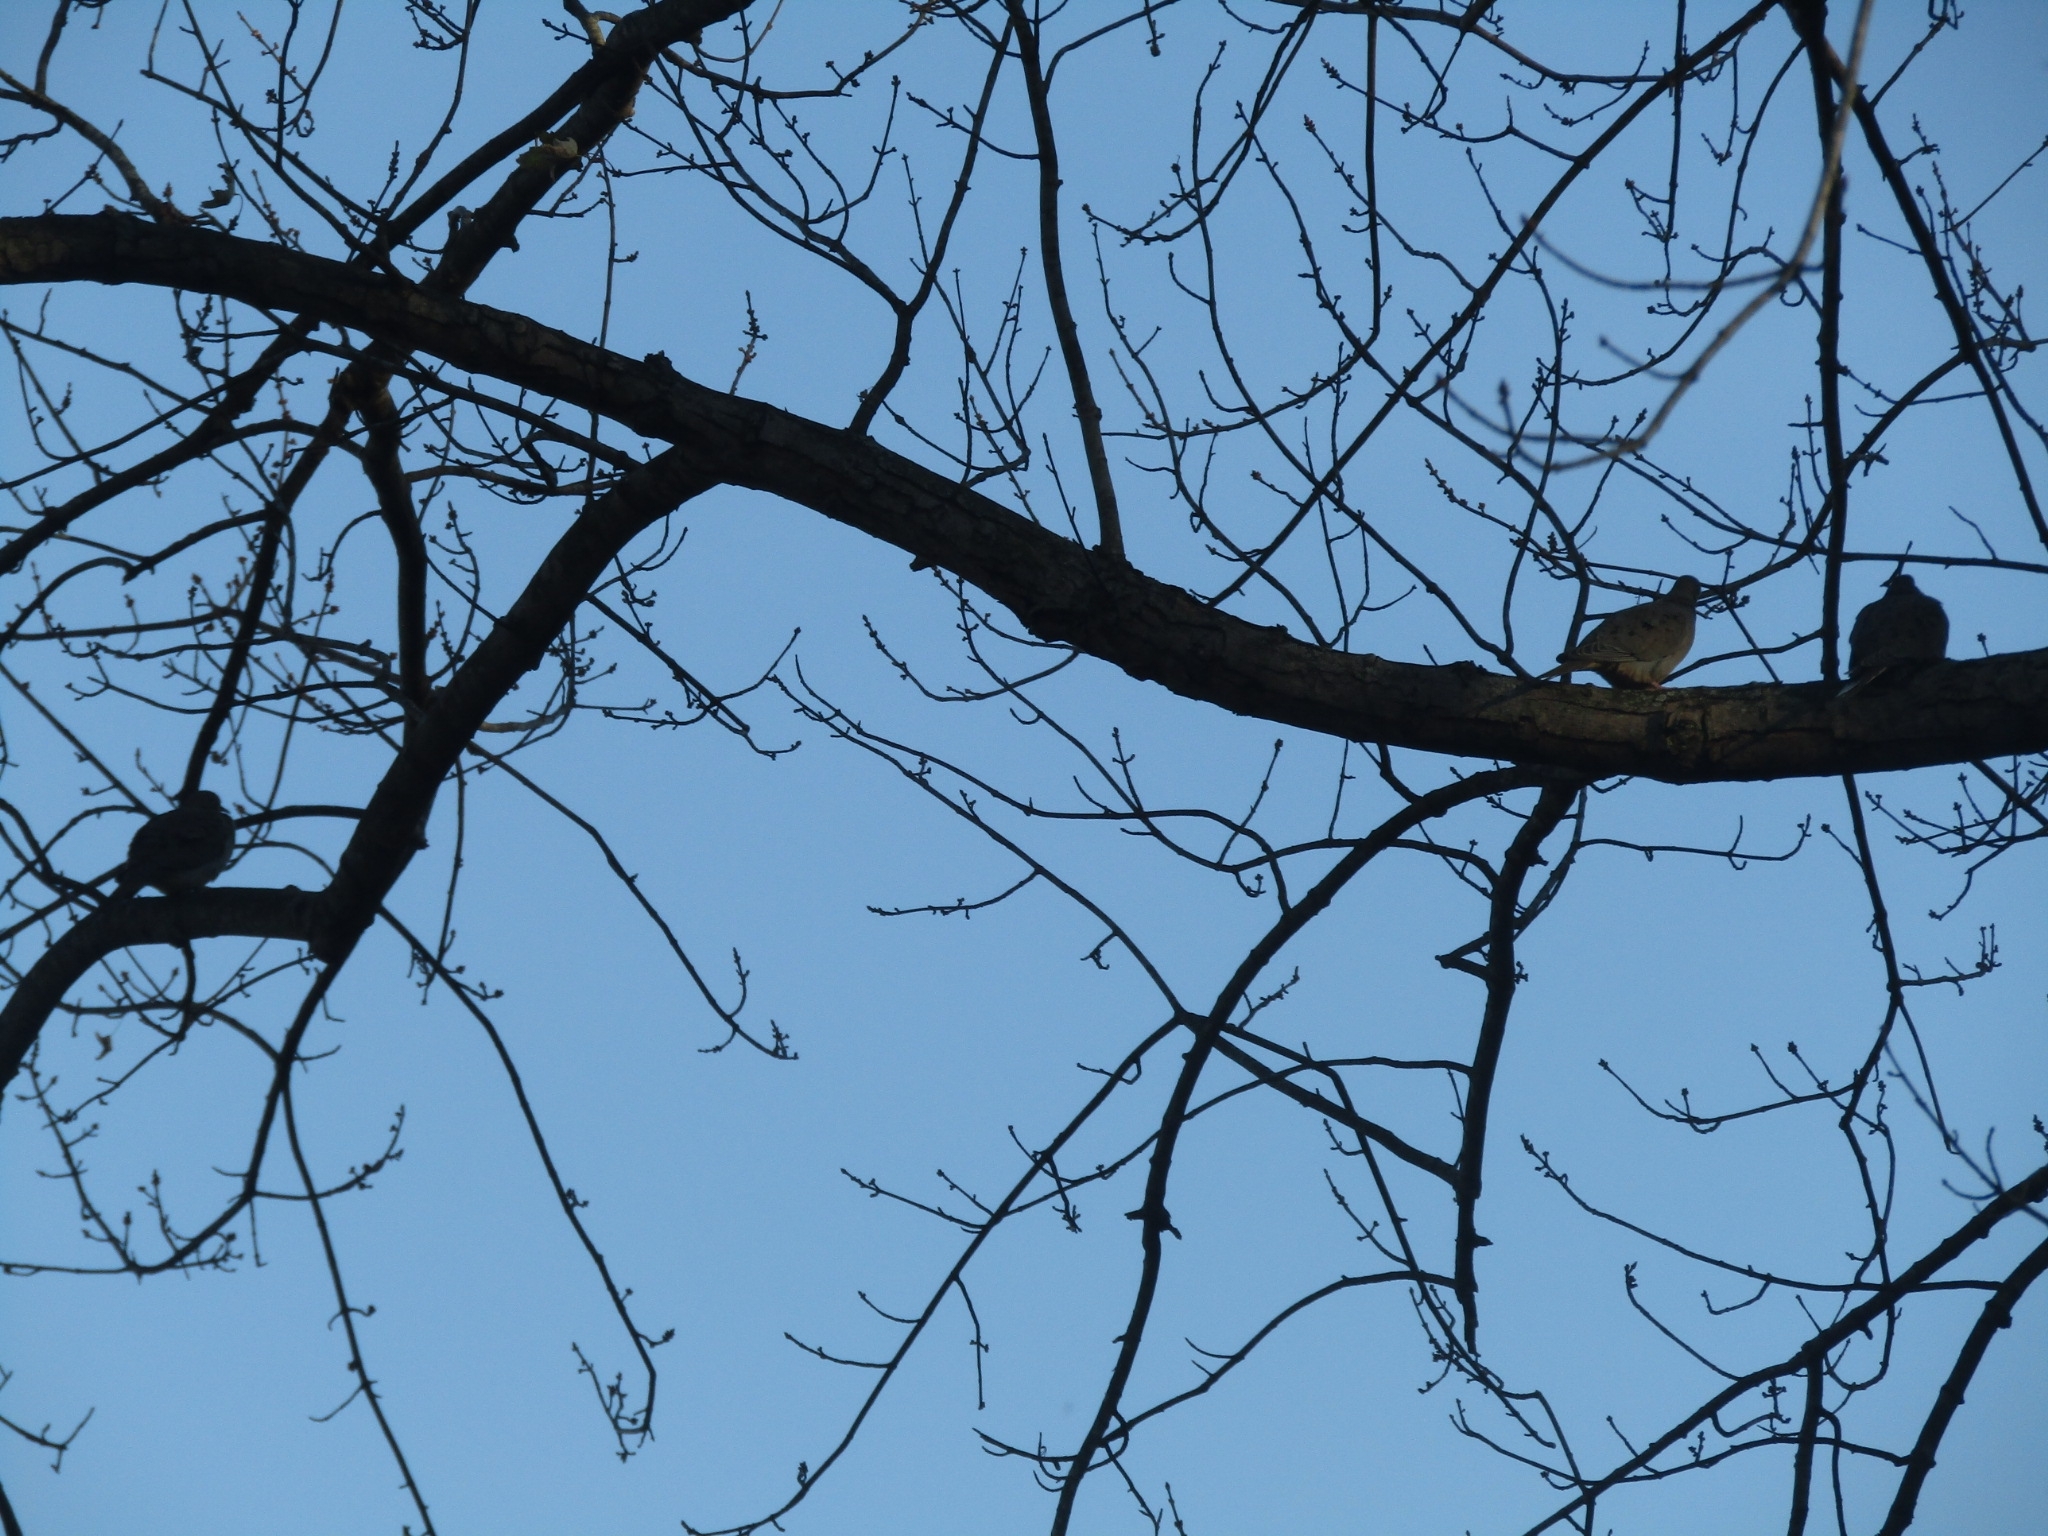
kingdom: Animalia
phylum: Chordata
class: Aves
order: Columbiformes
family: Columbidae
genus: Zenaida
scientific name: Zenaida macroura
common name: Mourning dove
